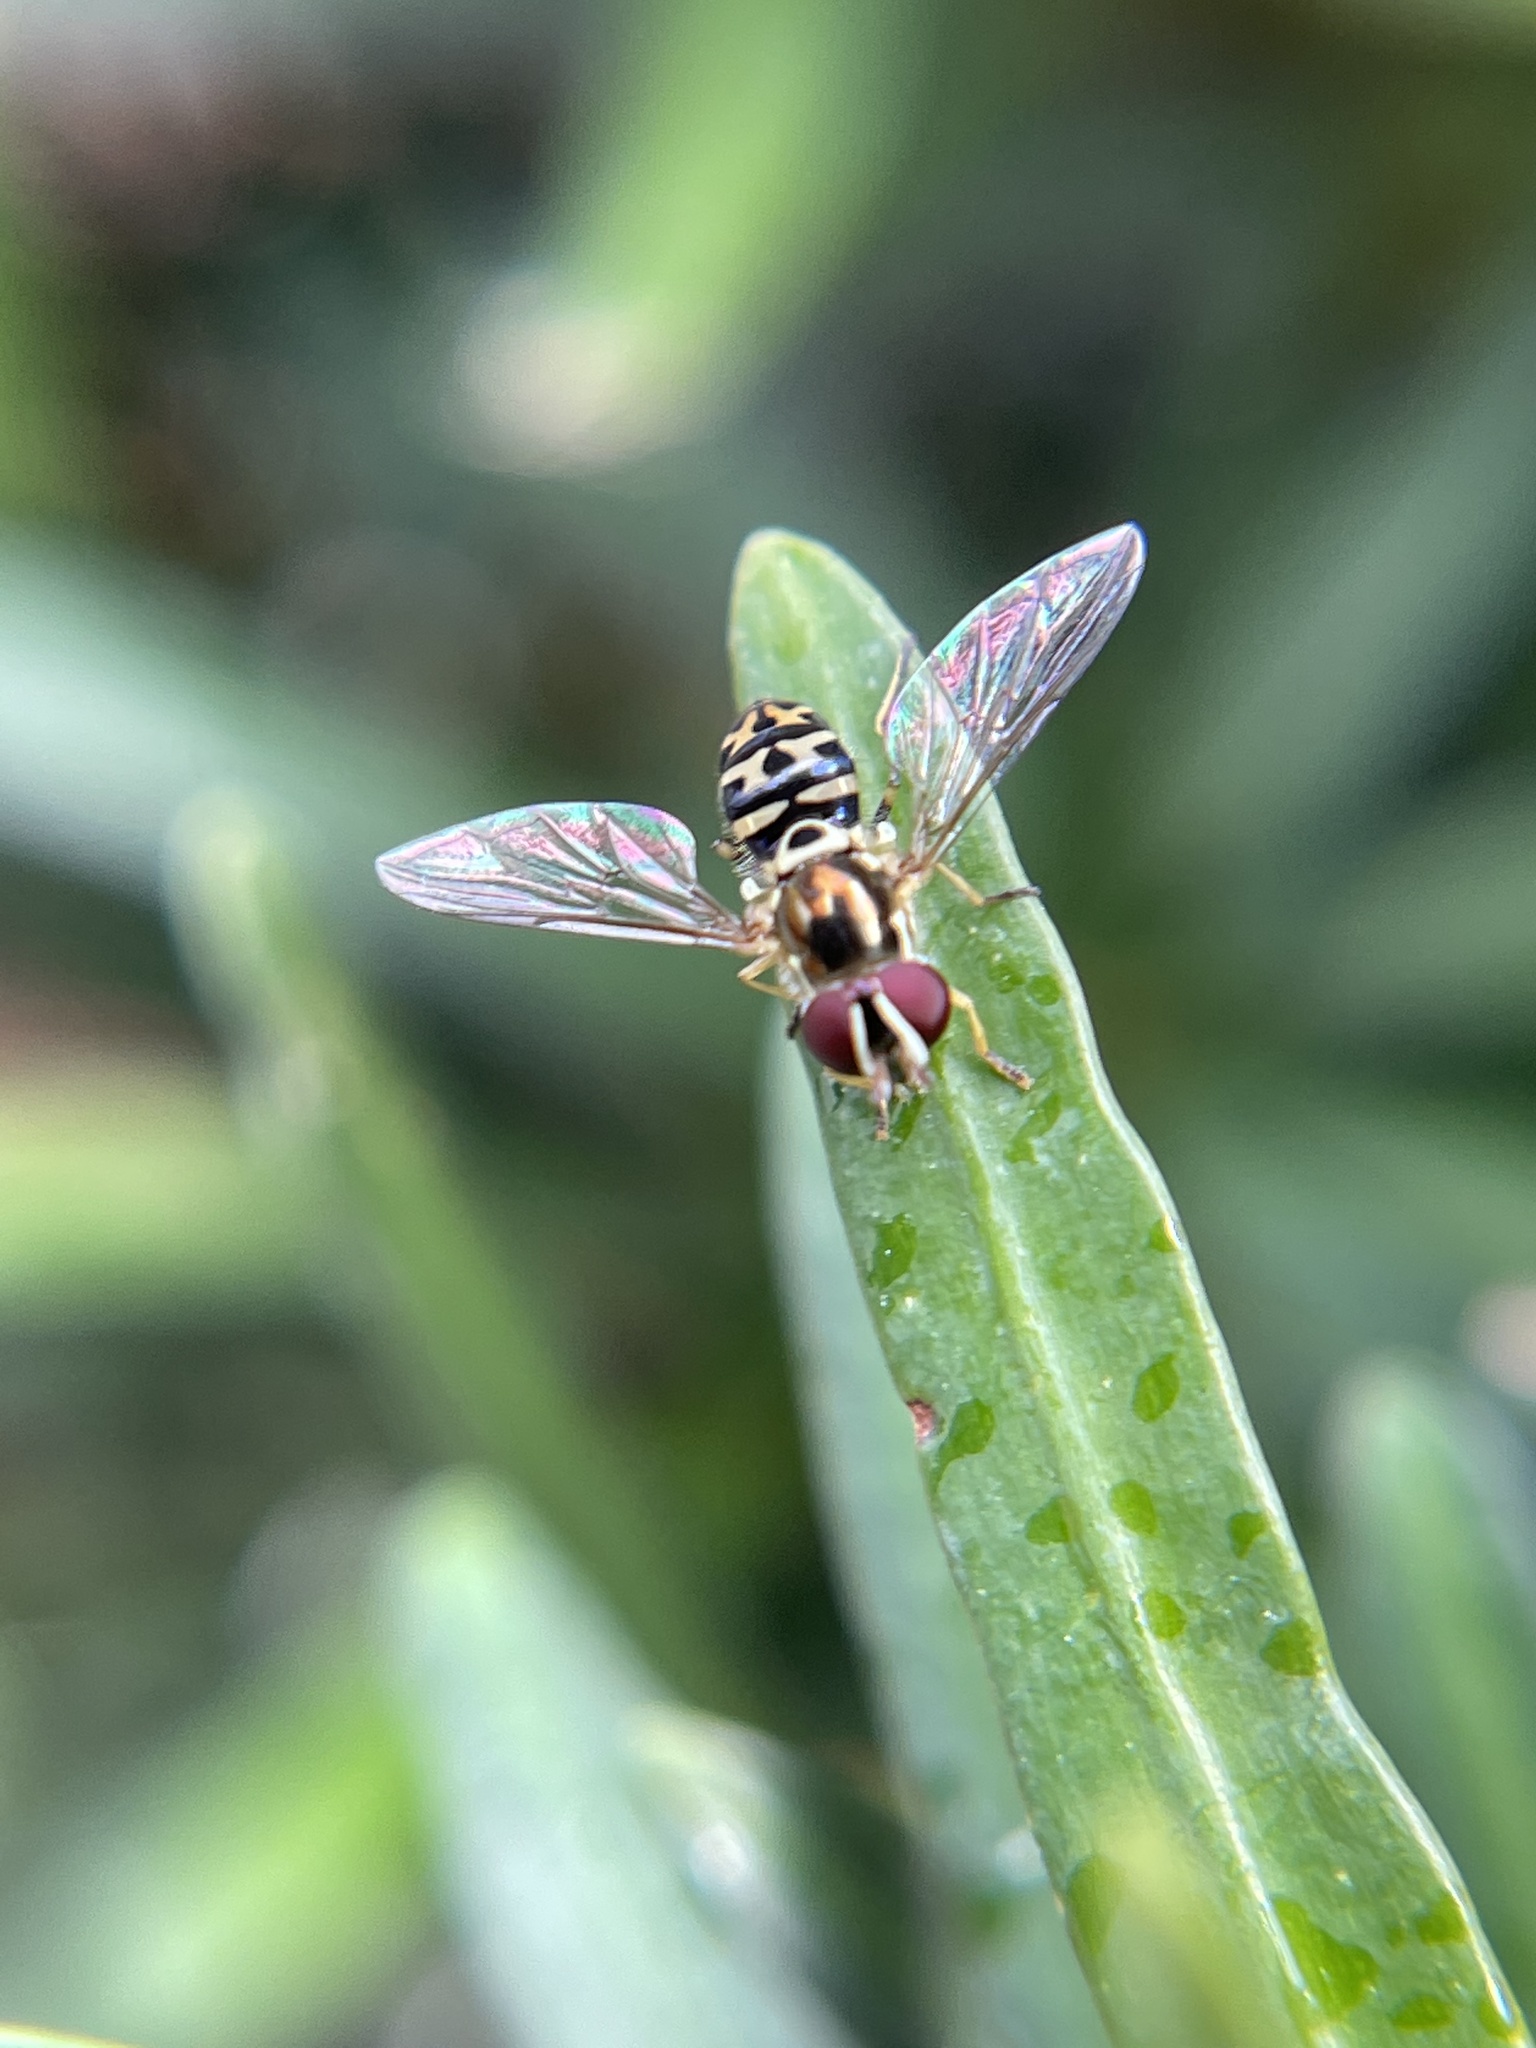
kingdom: Animalia
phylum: Arthropoda
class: Insecta
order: Diptera
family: Syrphidae
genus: Allograpta
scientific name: Allograpta radiata
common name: Syrphid fly
